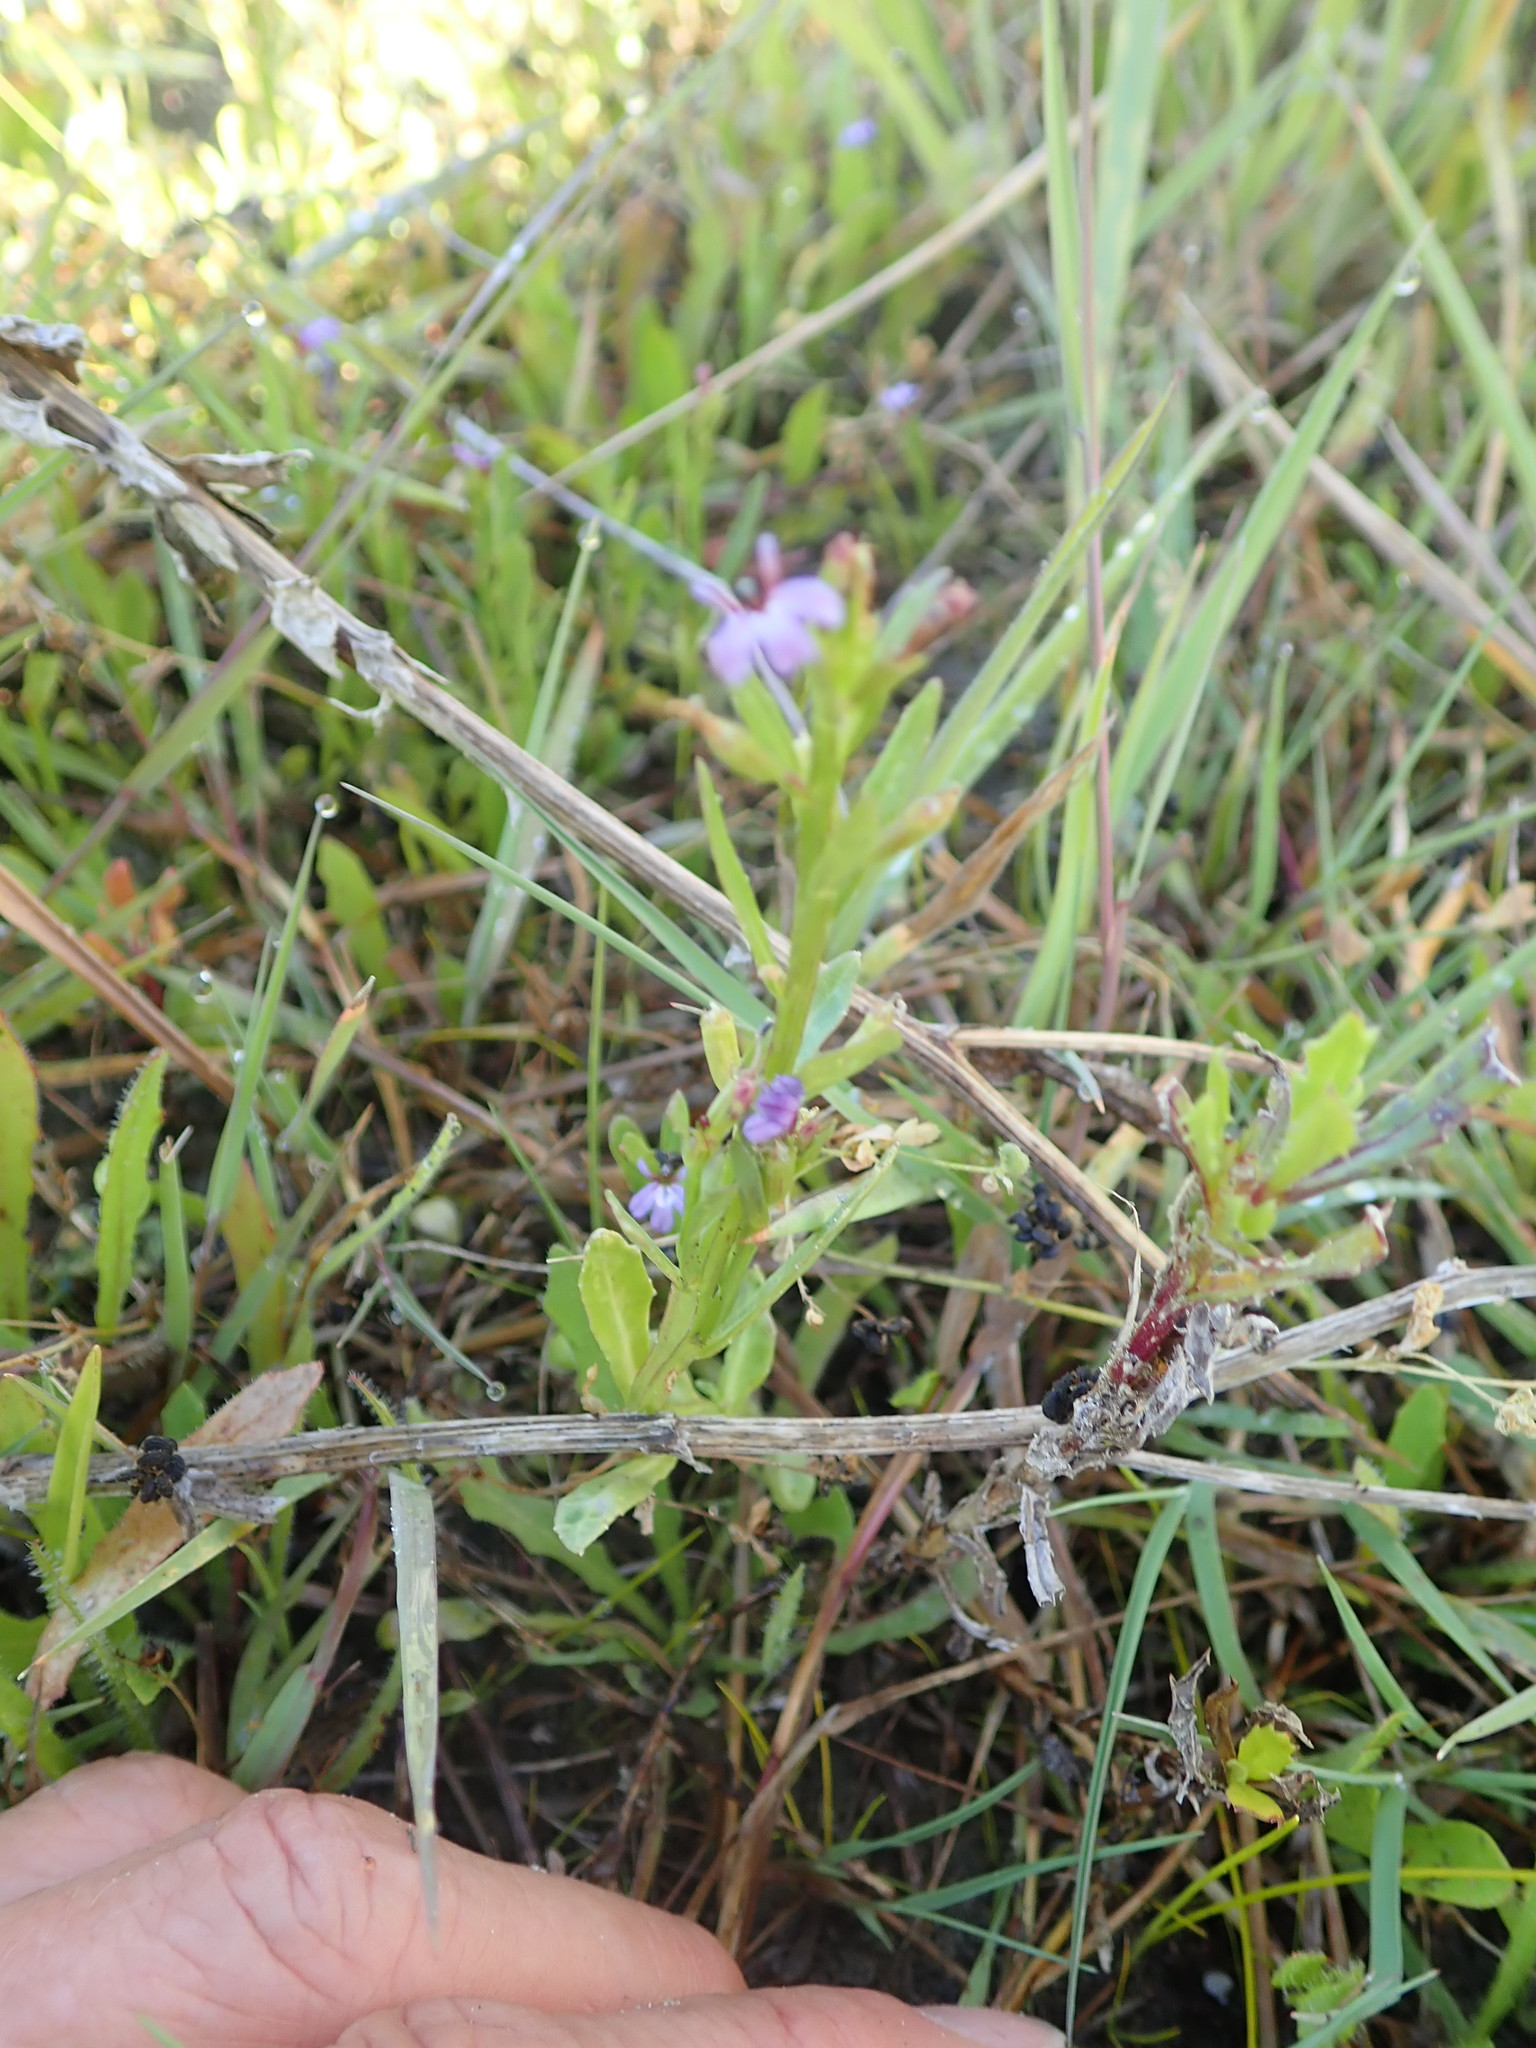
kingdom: Plantae
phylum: Tracheophyta
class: Magnoliopsida
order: Asterales
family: Campanulaceae
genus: Lobelia
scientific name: Lobelia anceps
